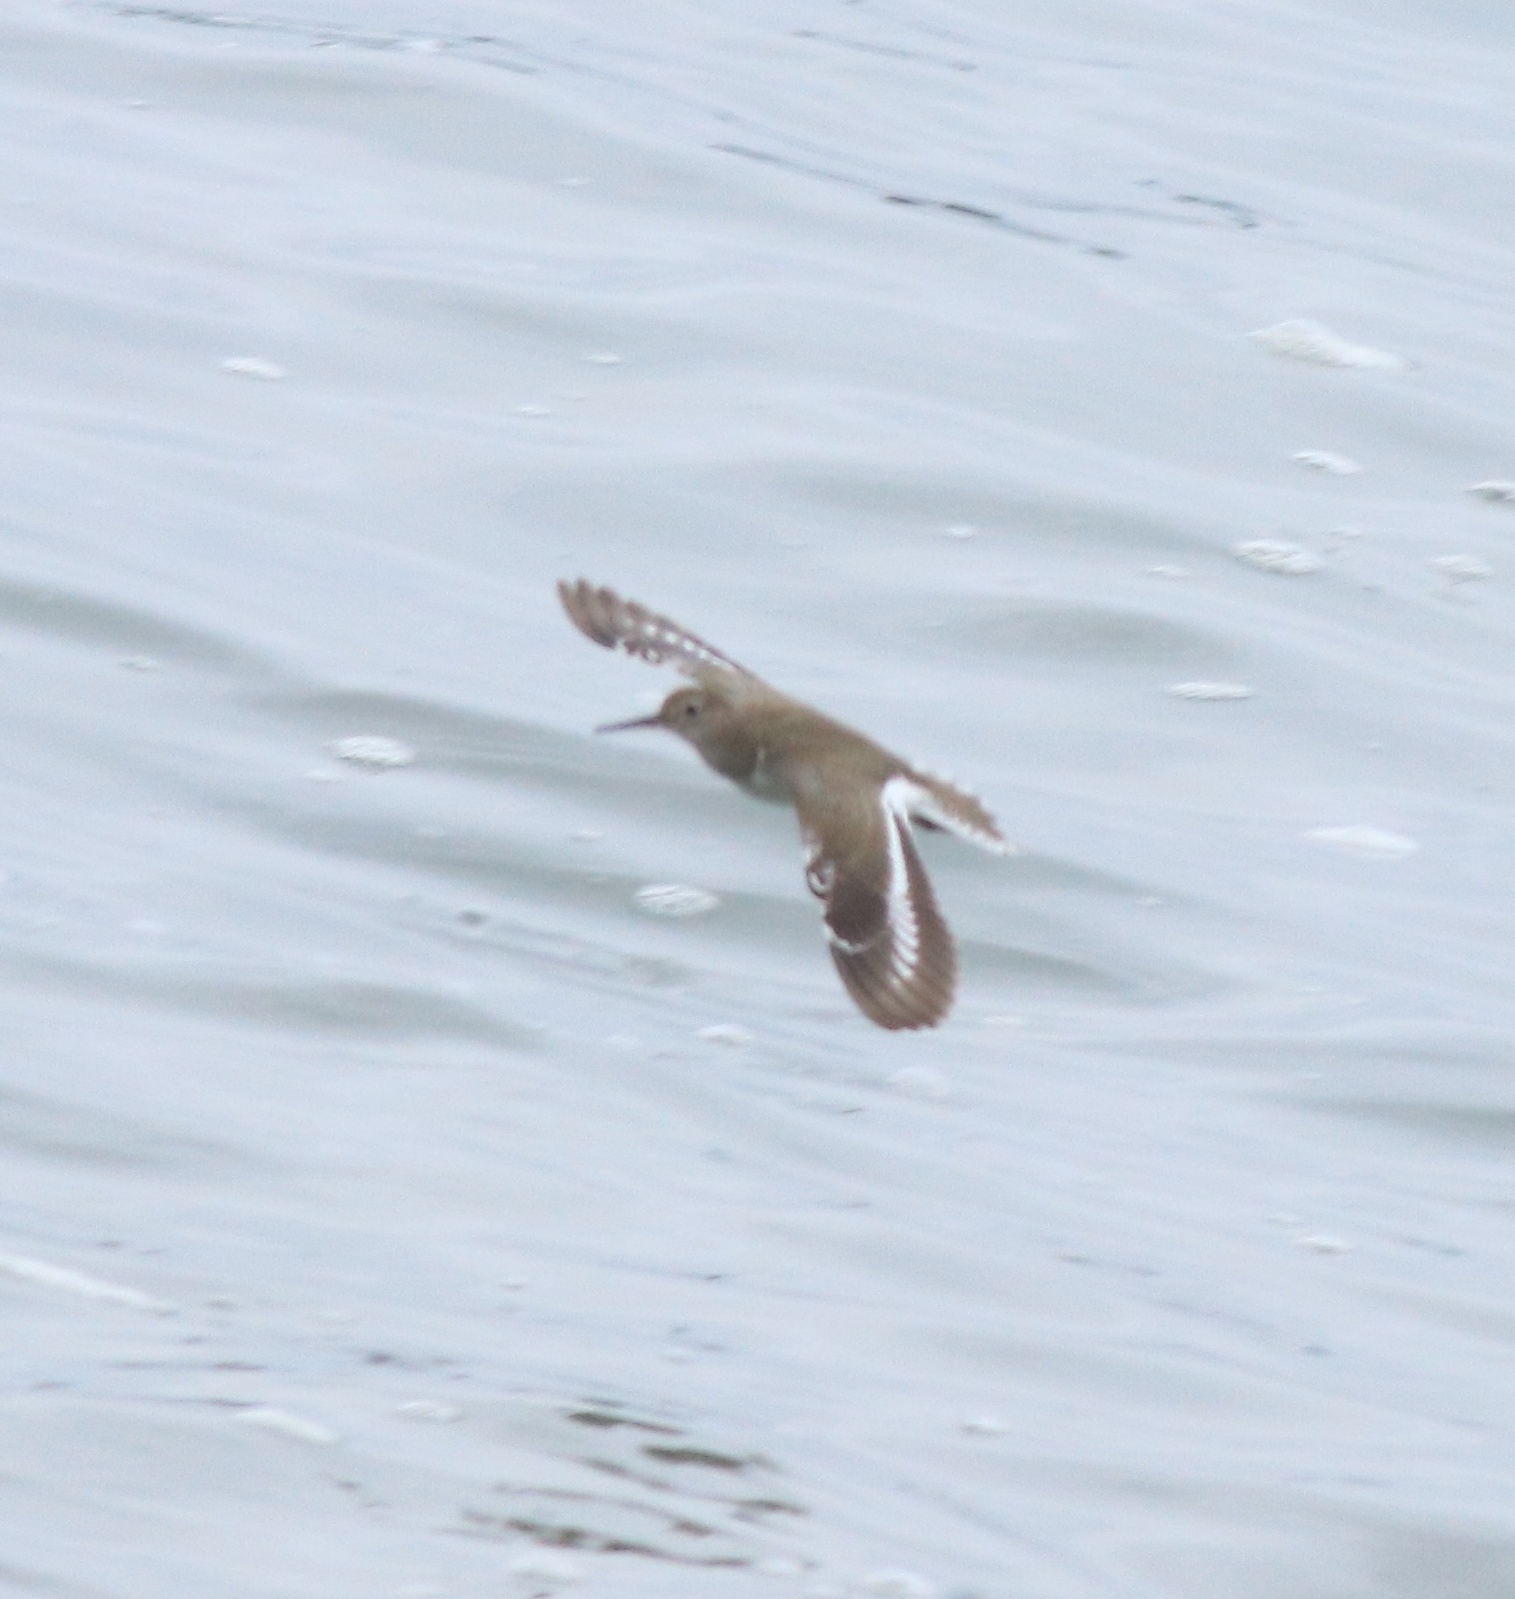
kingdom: Animalia
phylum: Chordata
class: Aves
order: Charadriiformes
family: Scolopacidae
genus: Actitis
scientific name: Actitis hypoleucos
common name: Common sandpiper
